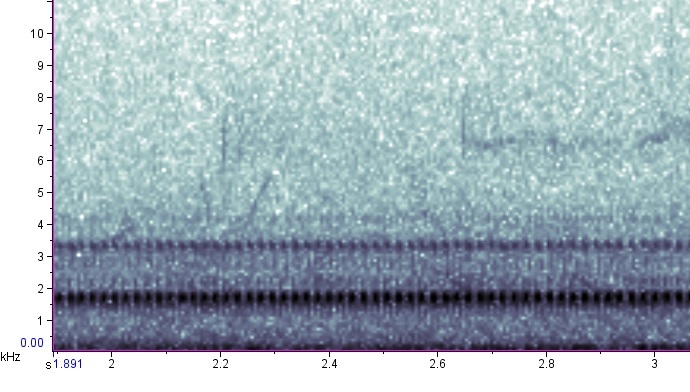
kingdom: Animalia
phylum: Chordata
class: Amphibia
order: Anura
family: Bufonidae
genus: Anaxyrus
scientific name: Anaxyrus americanus
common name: American toad
